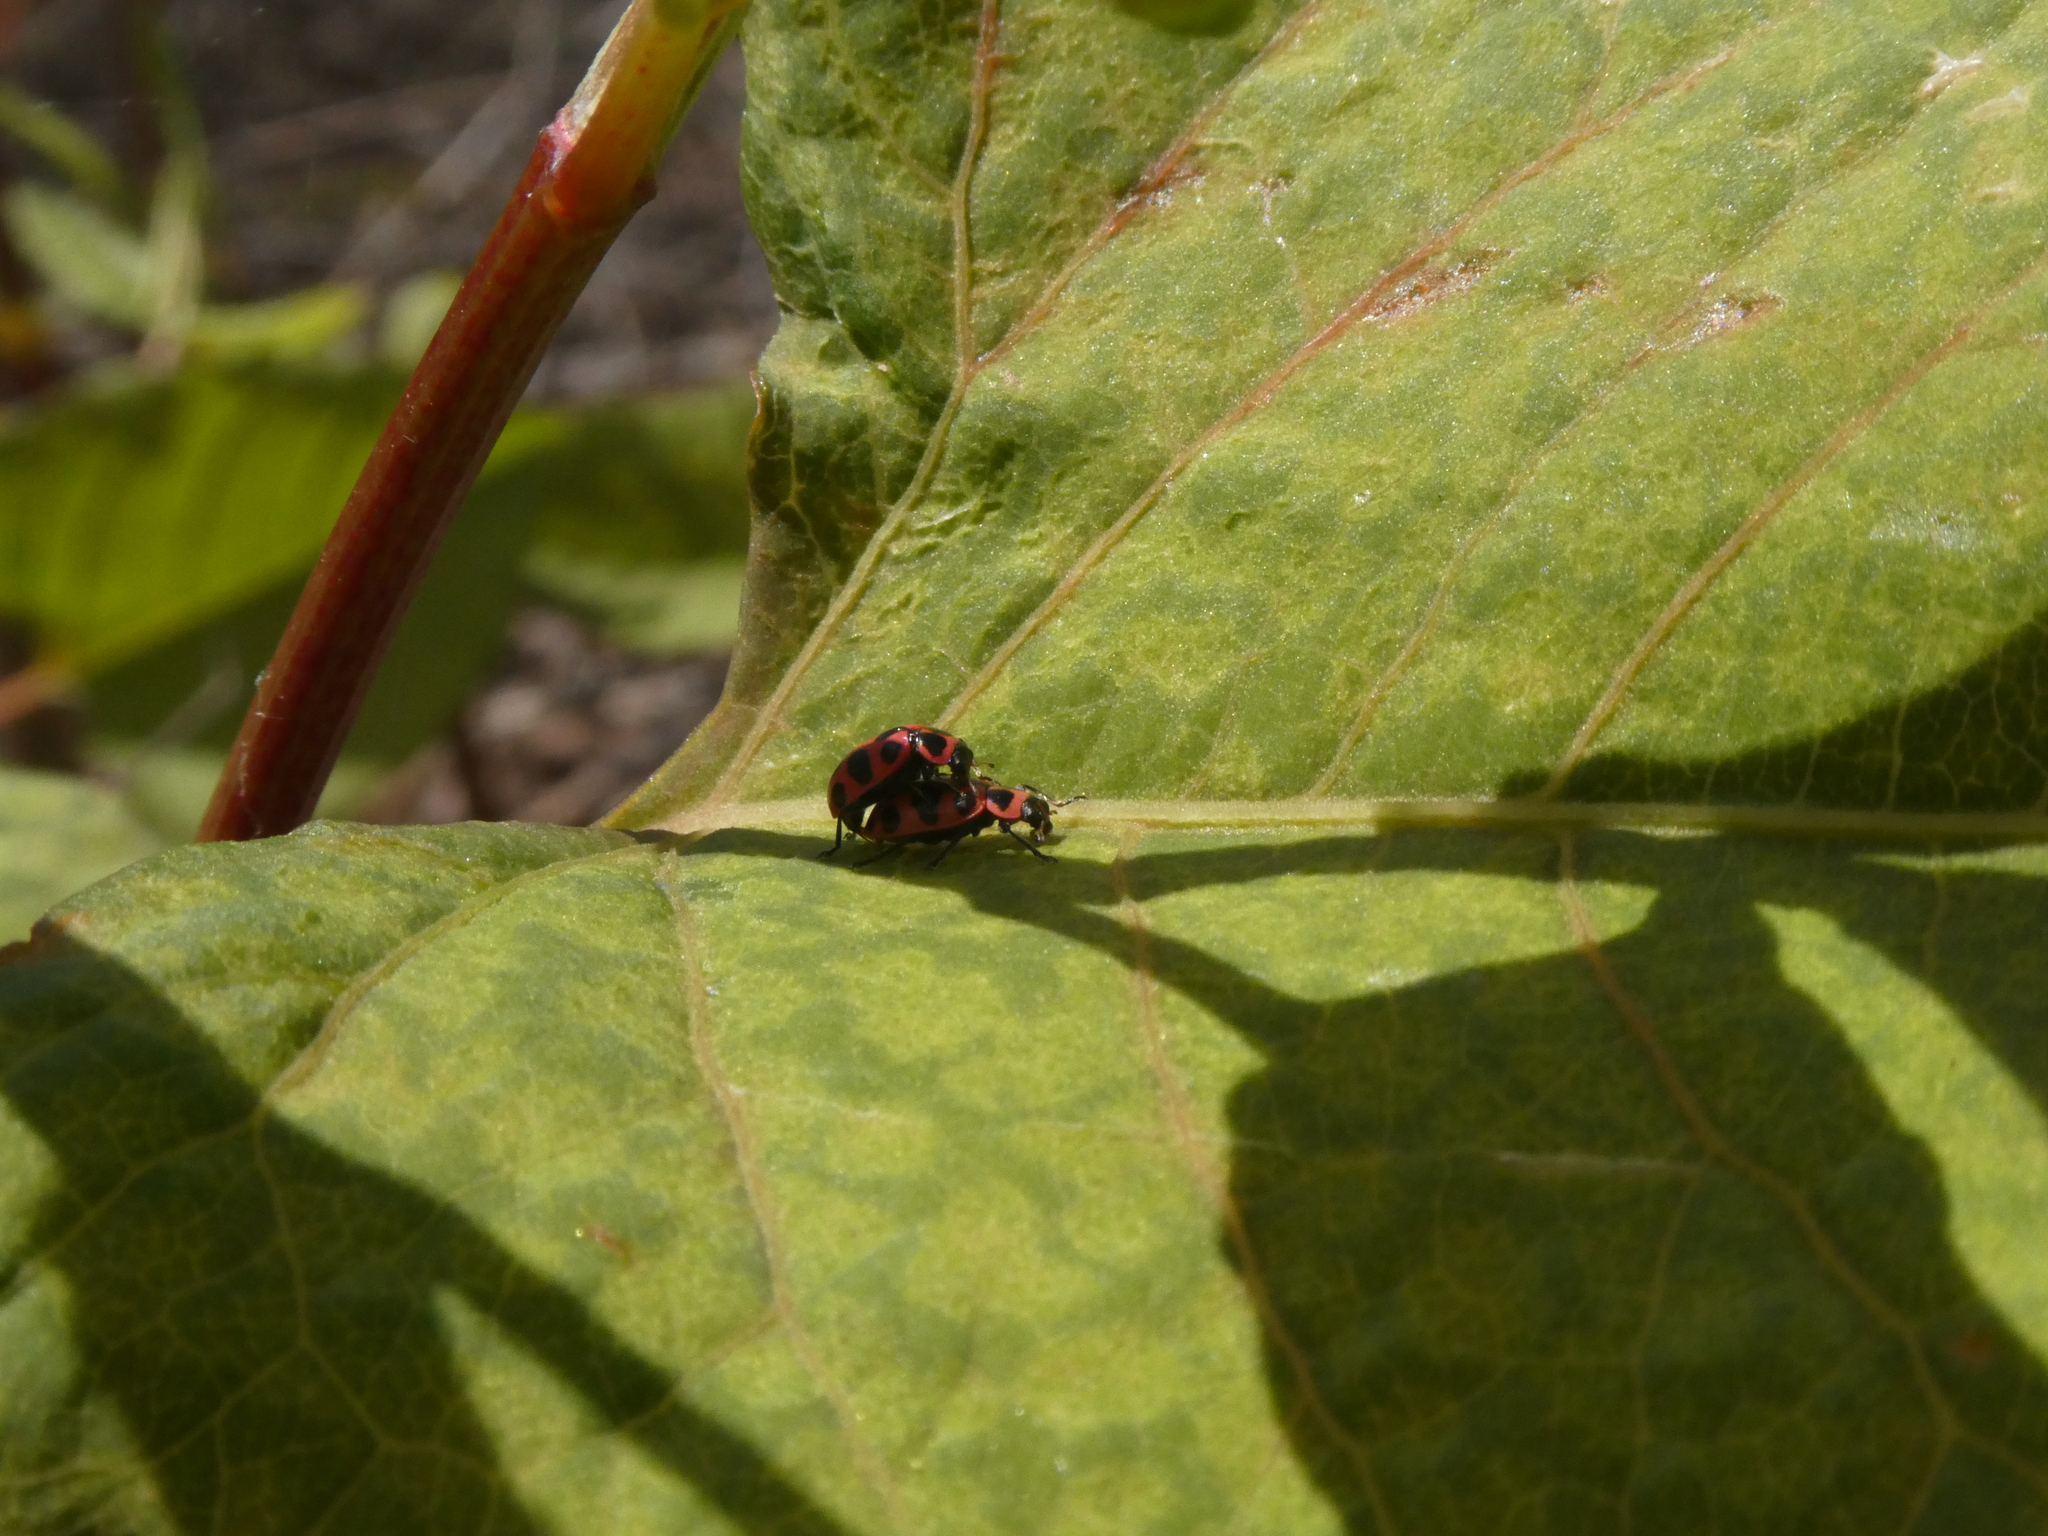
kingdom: Animalia
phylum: Arthropoda
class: Insecta
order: Coleoptera
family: Coccinellidae
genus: Coleomegilla
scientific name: Coleomegilla maculata
